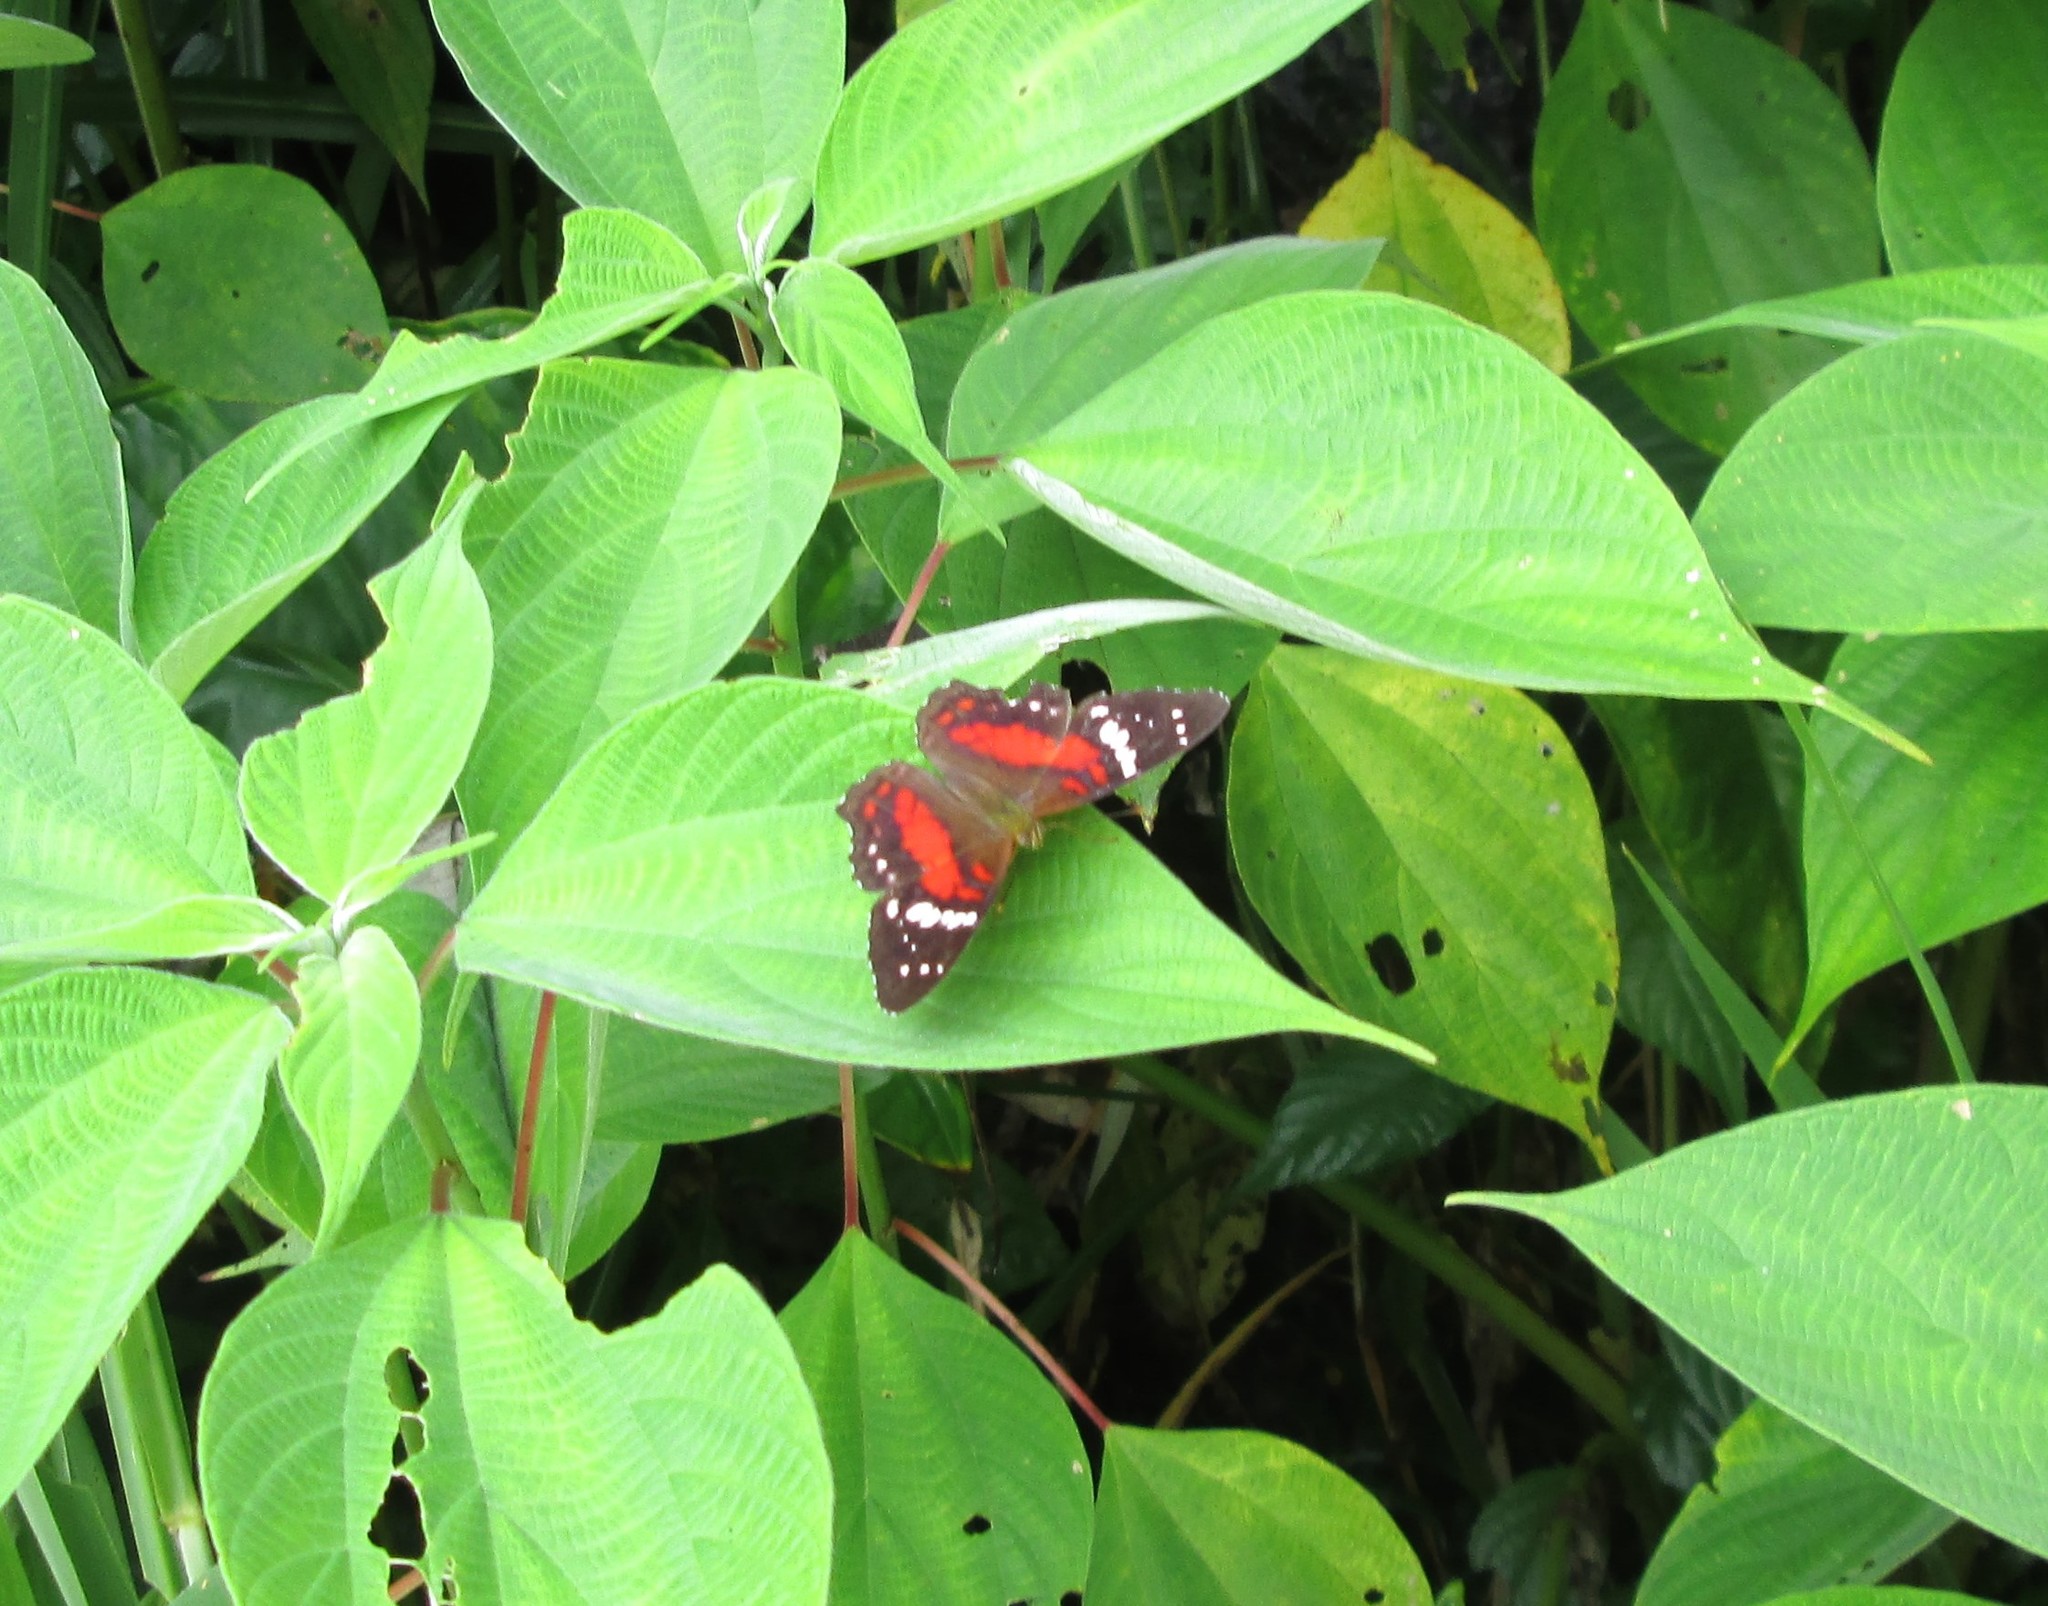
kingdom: Animalia
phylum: Arthropoda
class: Insecta
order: Lepidoptera
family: Nymphalidae
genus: Anartia
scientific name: Anartia amathea
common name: Red peacock
